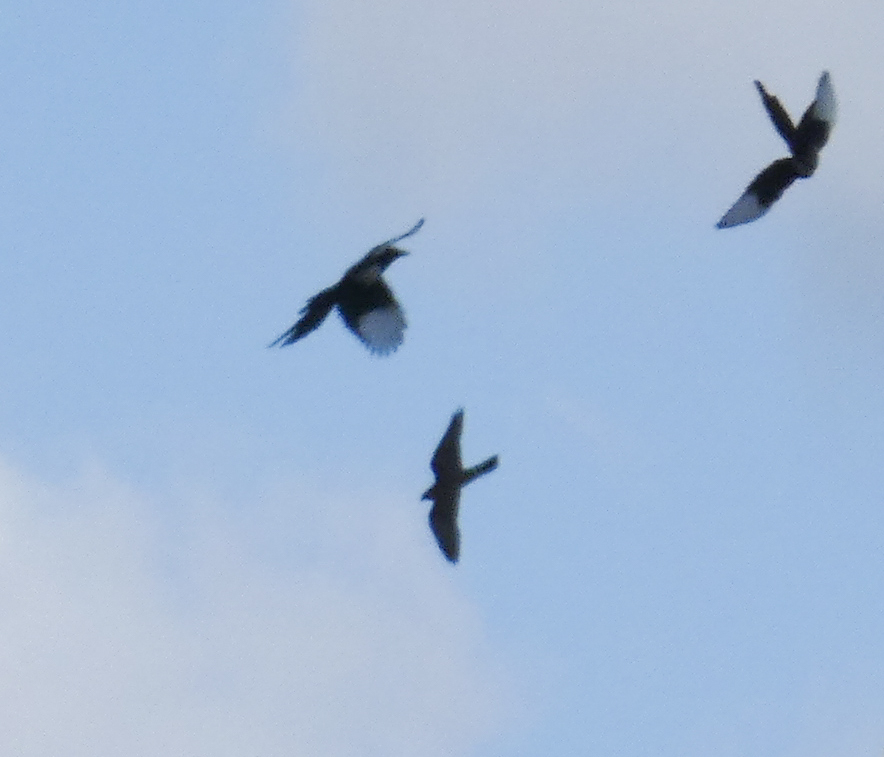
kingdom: Animalia
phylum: Chordata
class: Aves
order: Passeriformes
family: Corvidae
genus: Pica
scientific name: Pica hudsonia
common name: Black-billed magpie
